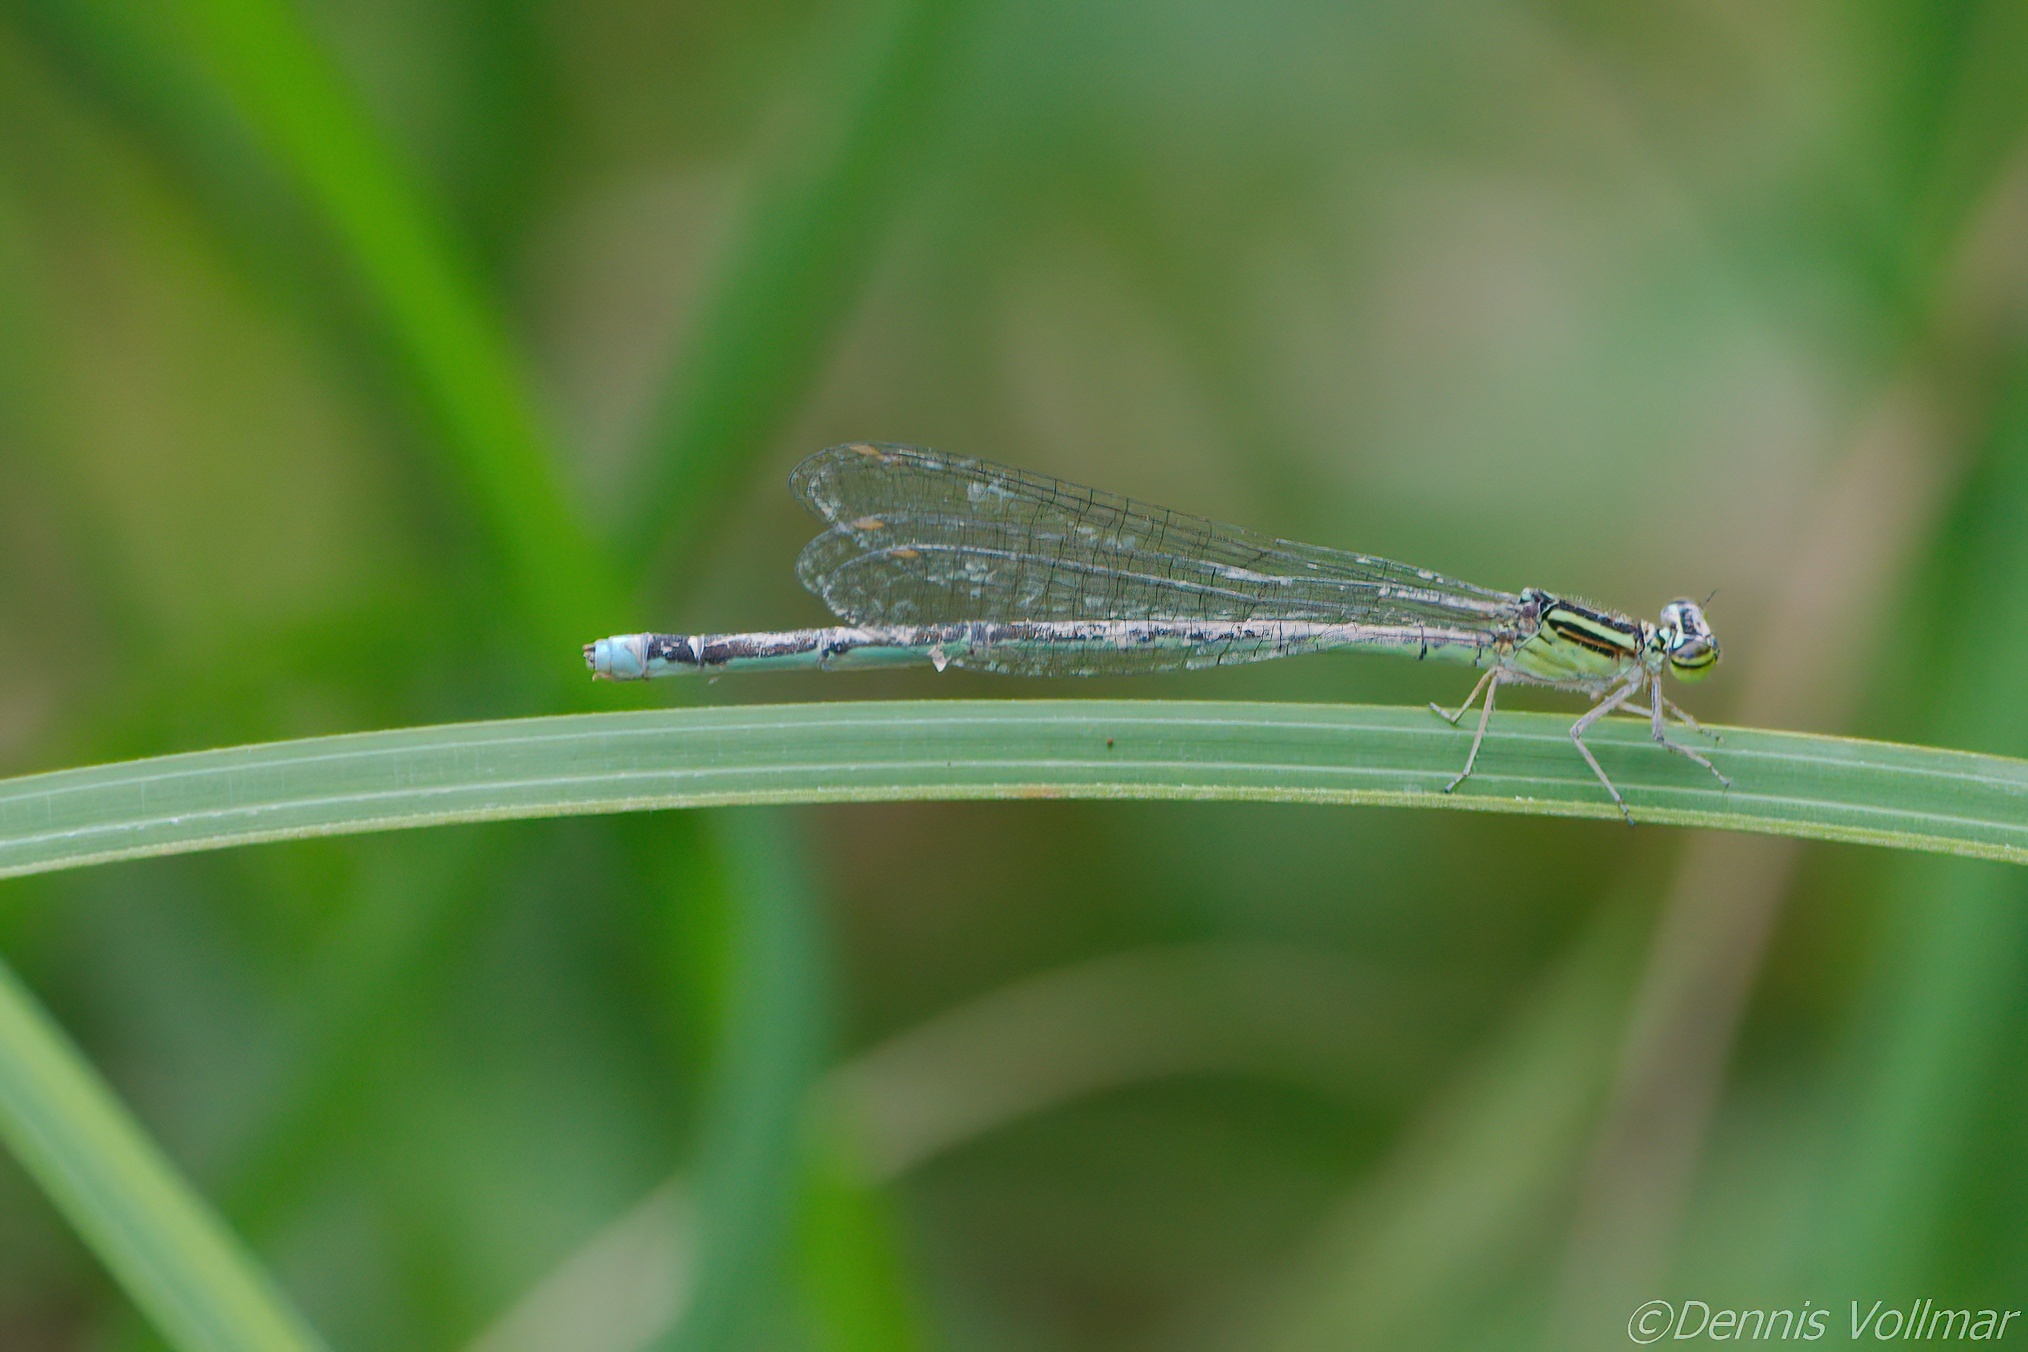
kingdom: Animalia
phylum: Arthropoda
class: Insecta
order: Odonata
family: Coenagrionidae
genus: Enallagma
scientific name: Enallagma exsulans
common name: Stream bluet
